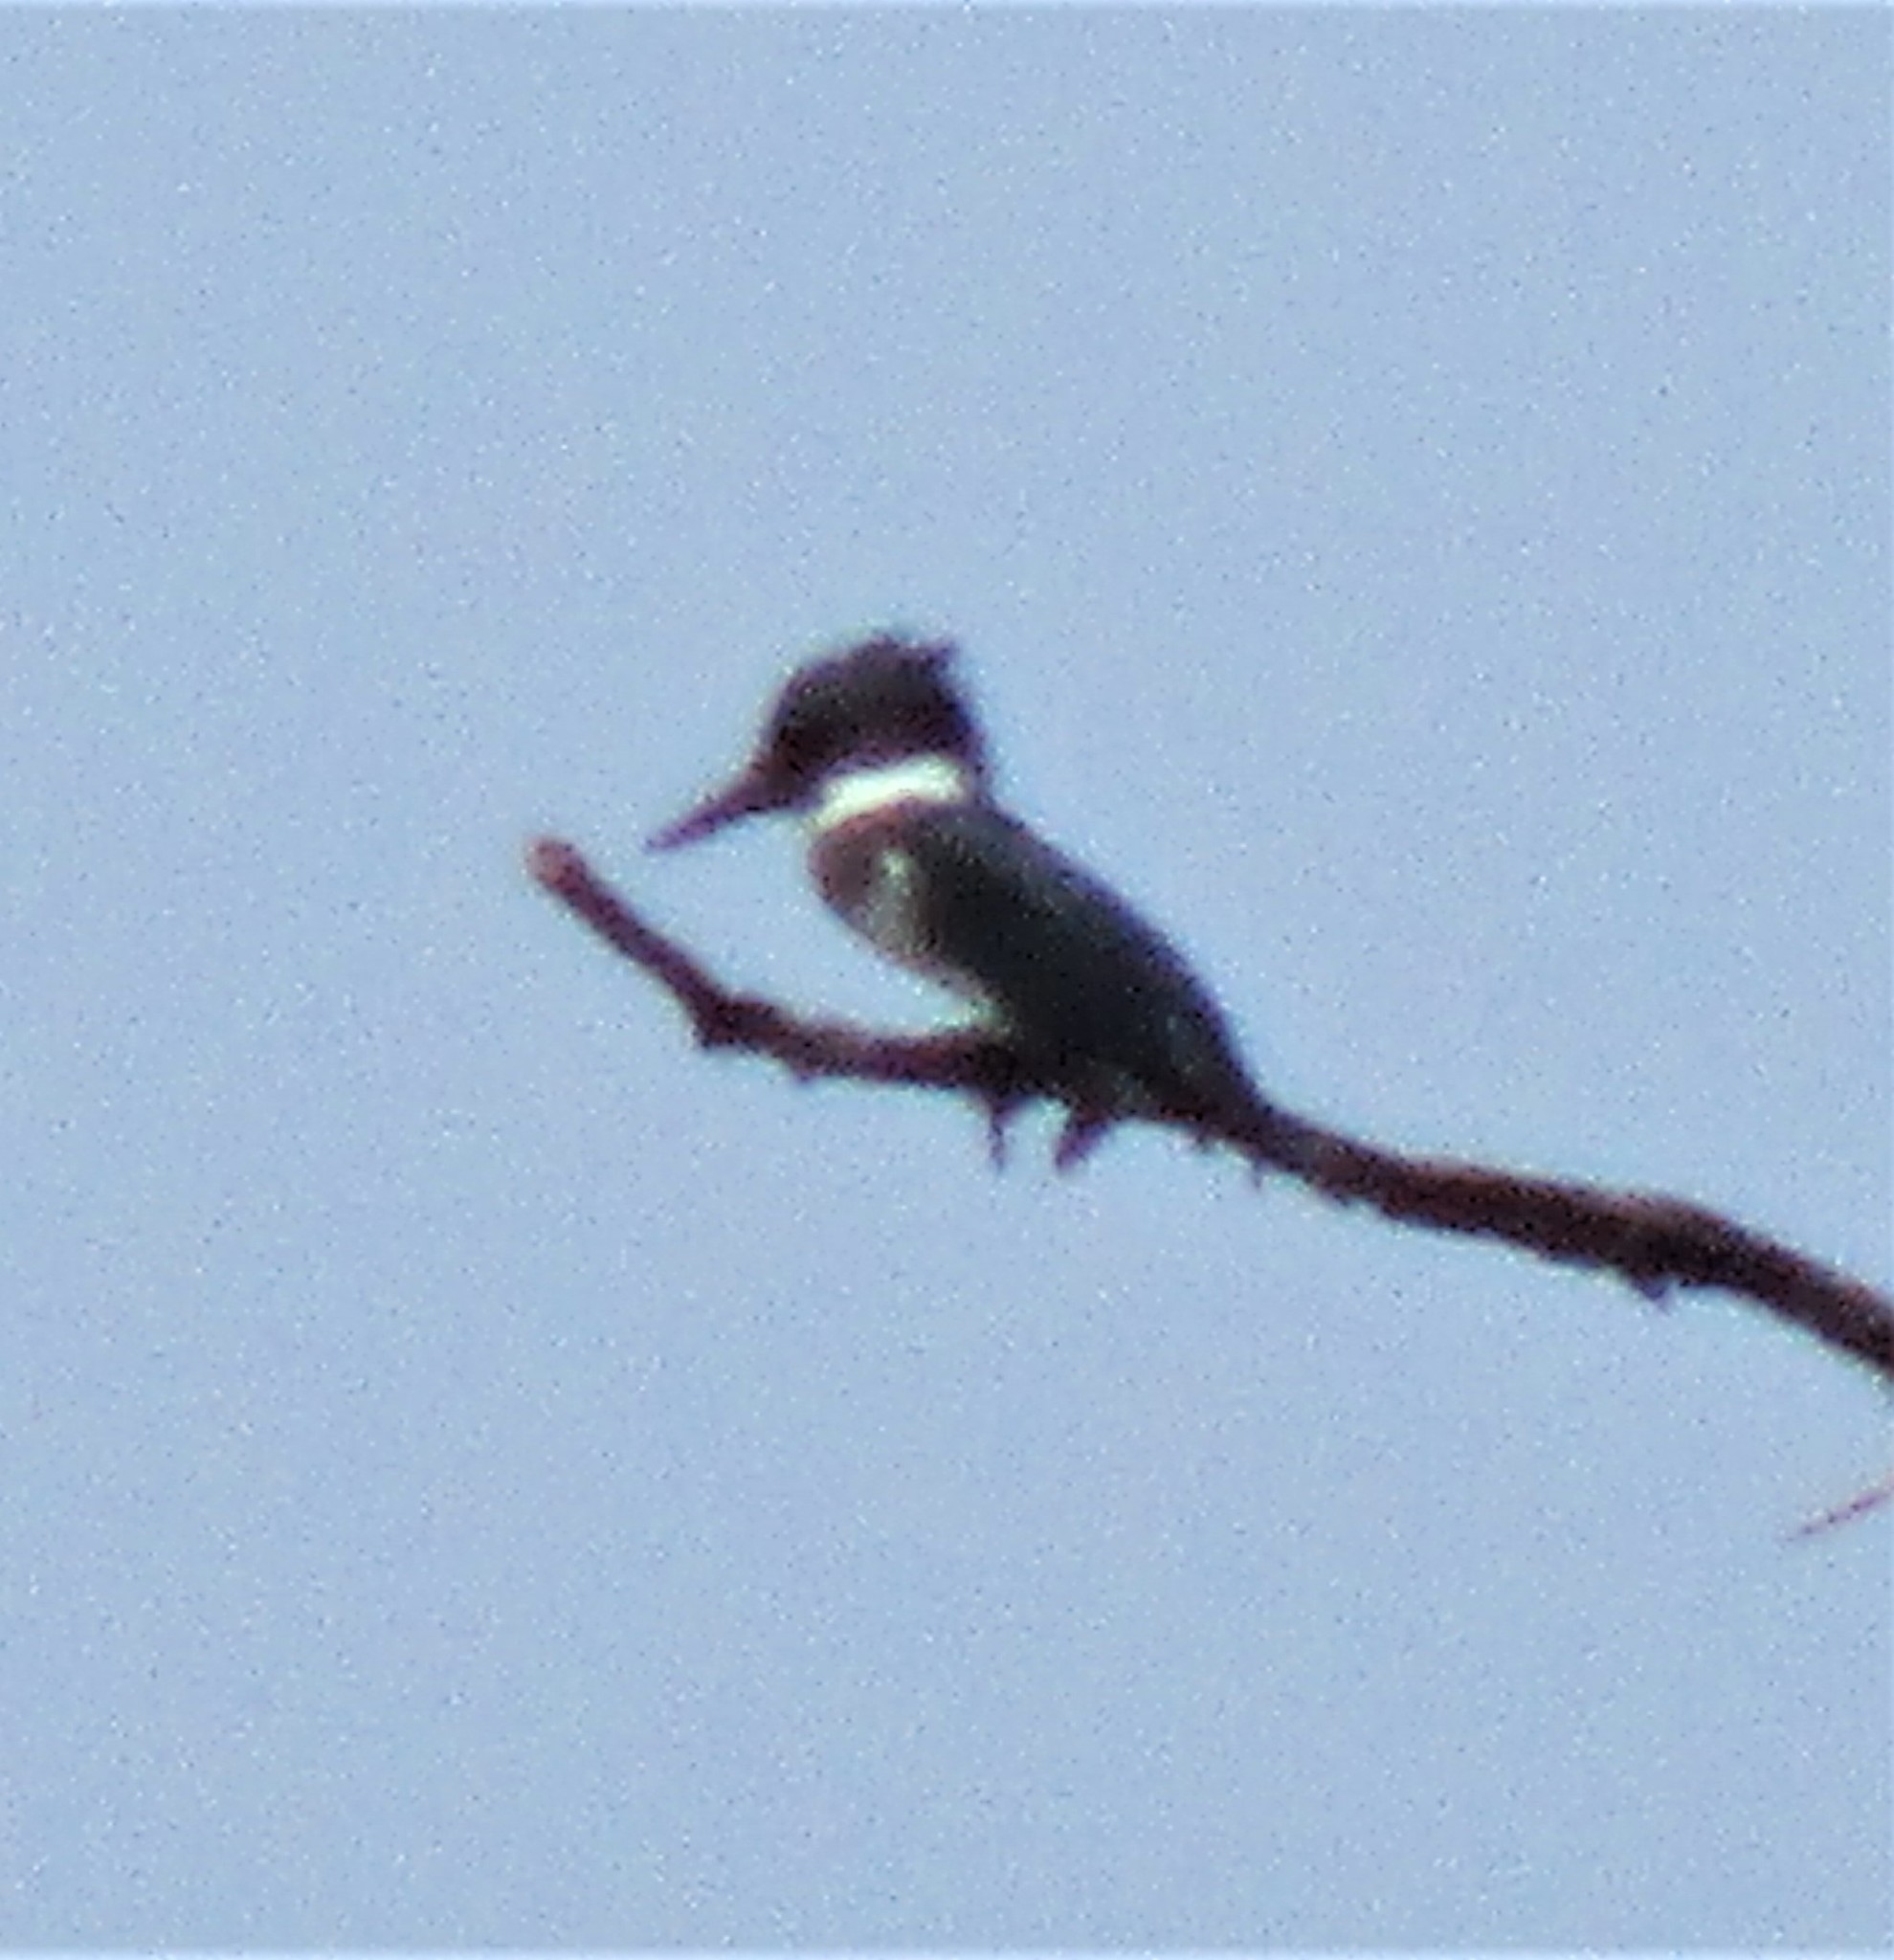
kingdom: Animalia
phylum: Chordata
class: Aves
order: Coraciiformes
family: Alcedinidae
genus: Megaceryle
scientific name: Megaceryle alcyon
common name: Belted kingfisher
